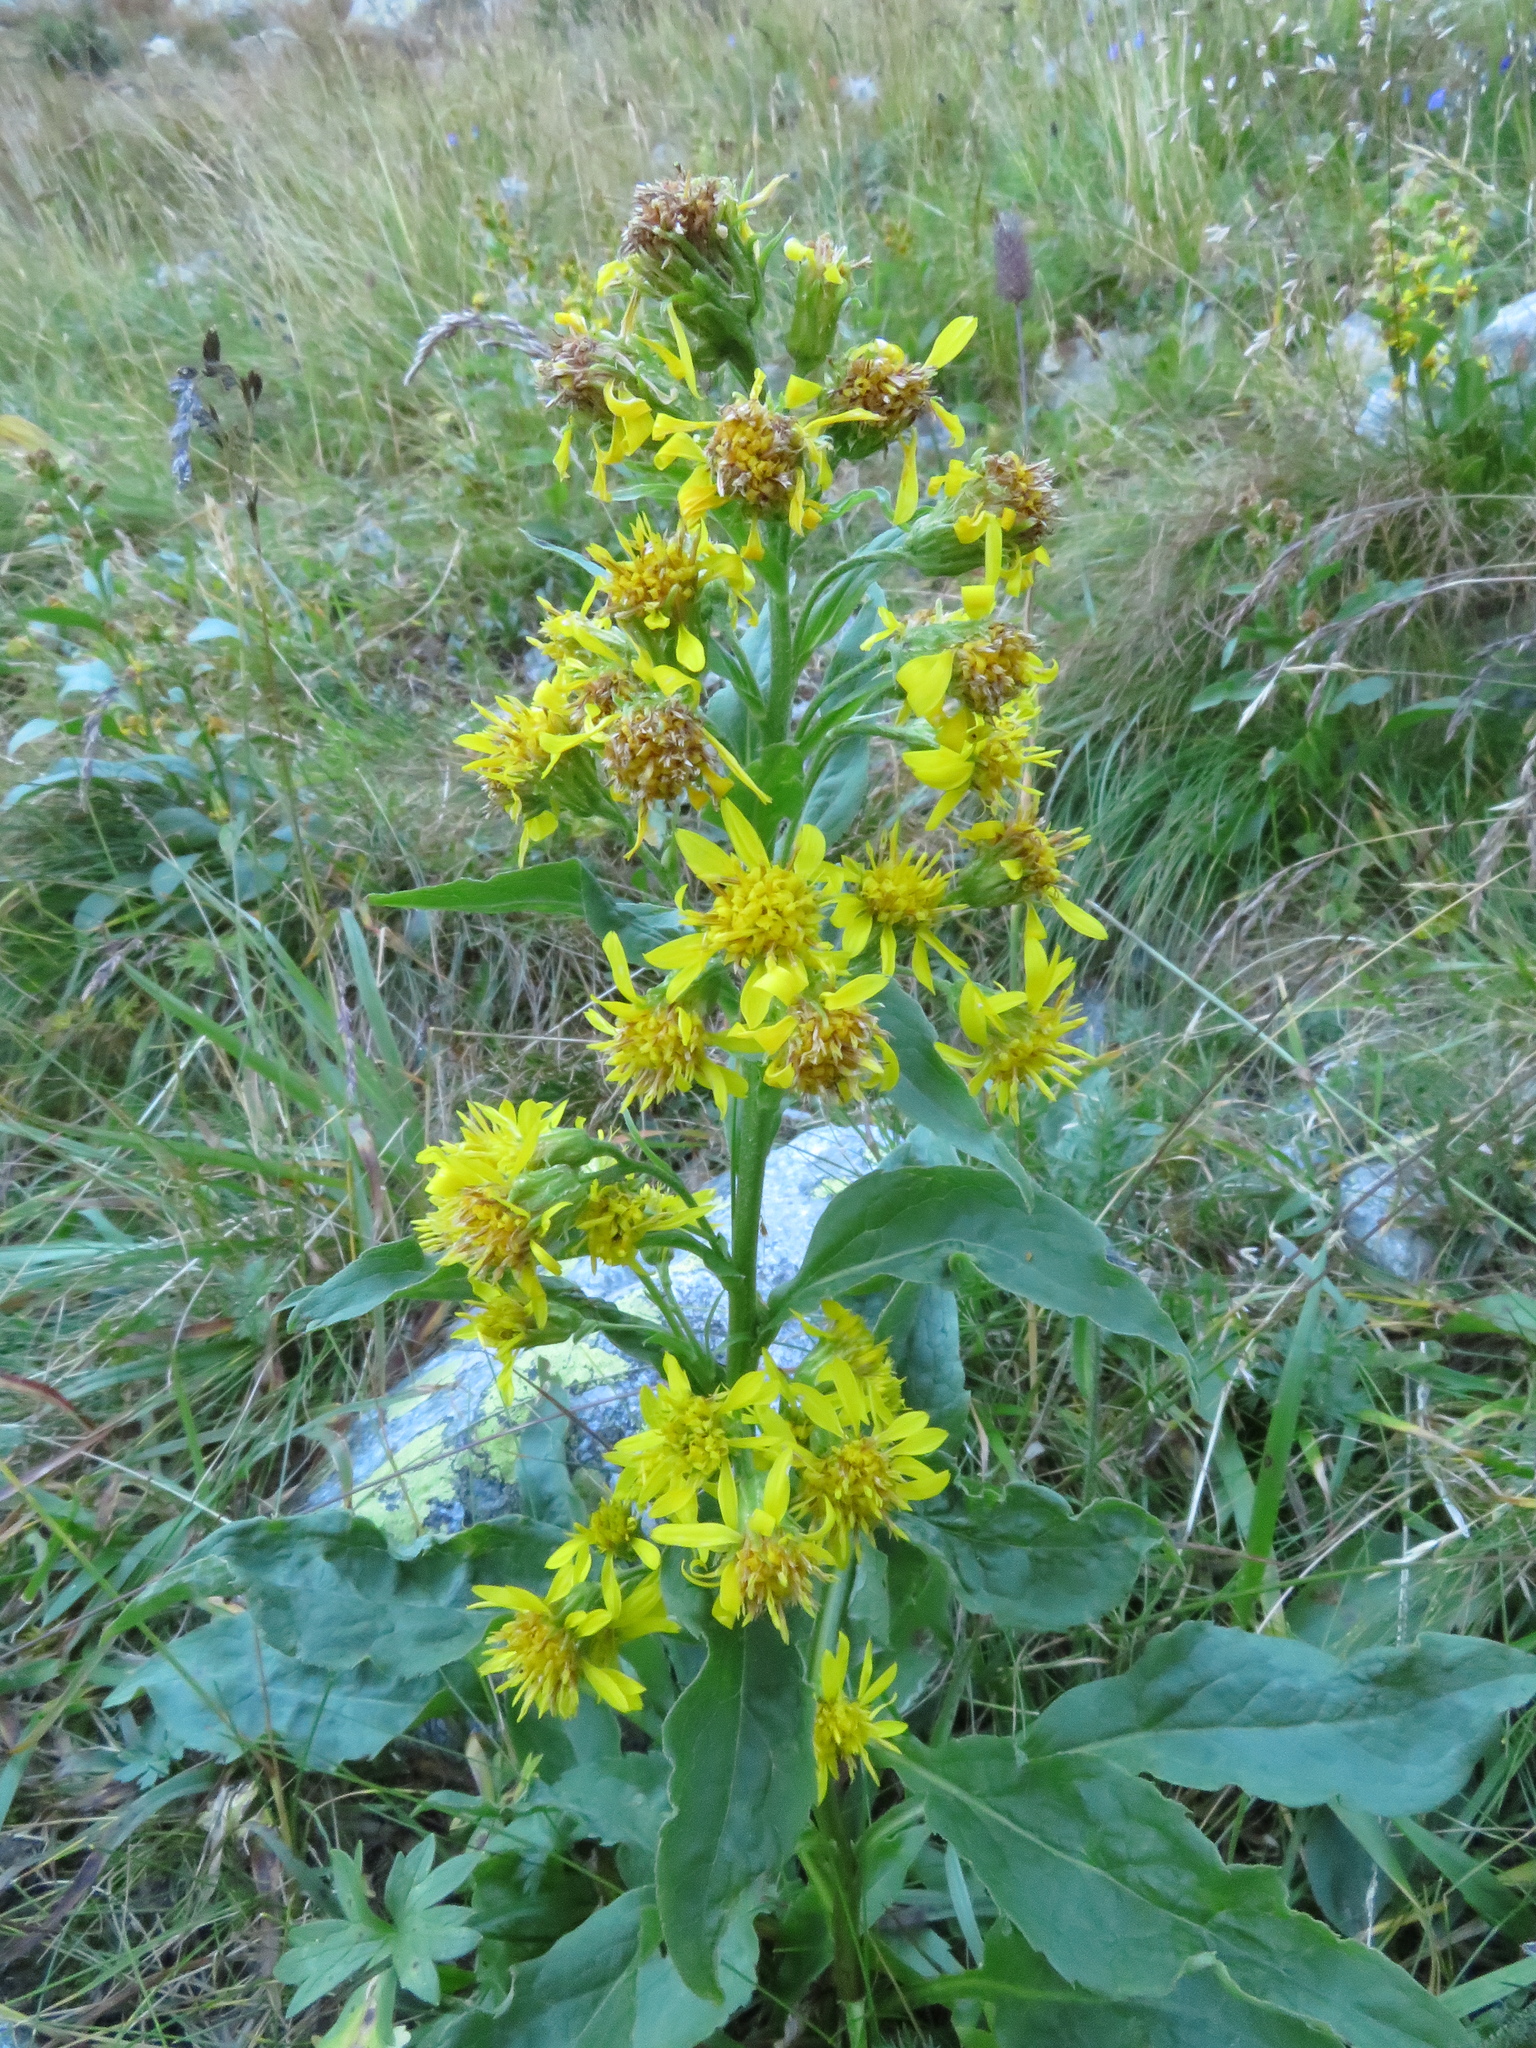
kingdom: Plantae
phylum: Tracheophyta
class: Magnoliopsida
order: Asterales
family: Asteraceae
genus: Solidago
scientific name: Solidago virgaurea
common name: Goldenrod
